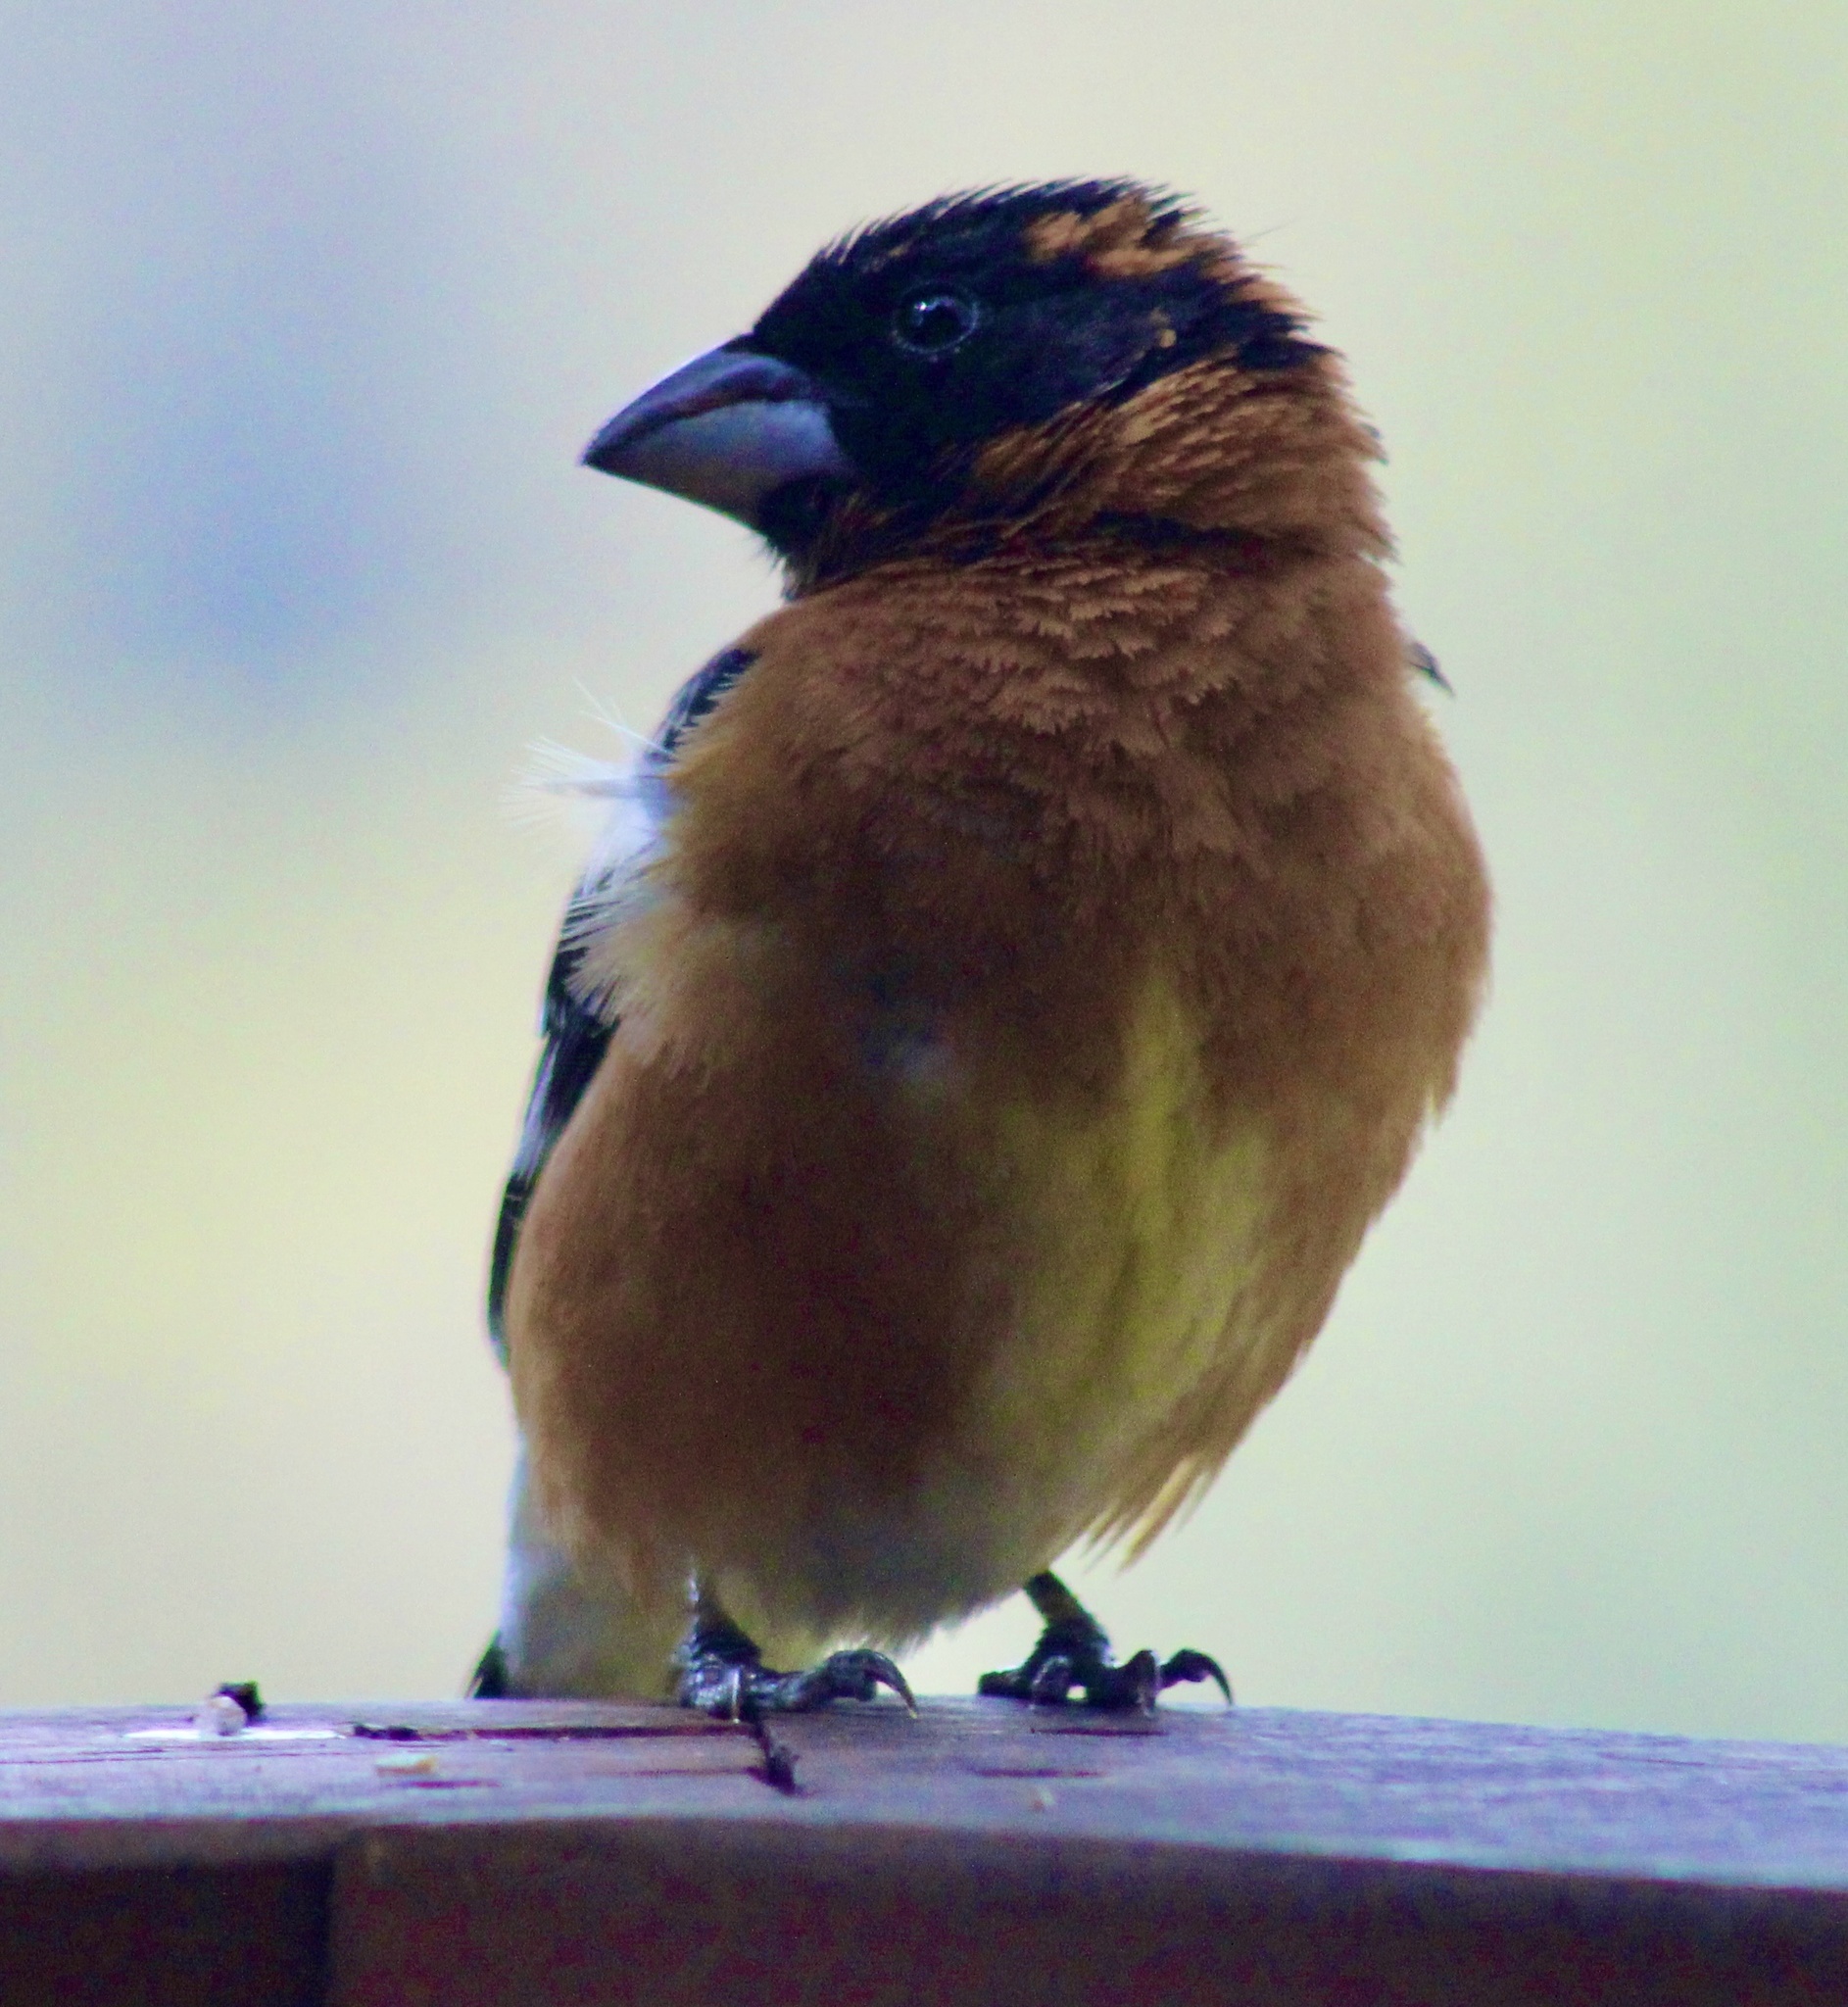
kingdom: Animalia
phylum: Chordata
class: Aves
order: Passeriformes
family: Cardinalidae
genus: Pheucticus
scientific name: Pheucticus melanocephalus
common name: Black-headed grosbeak
